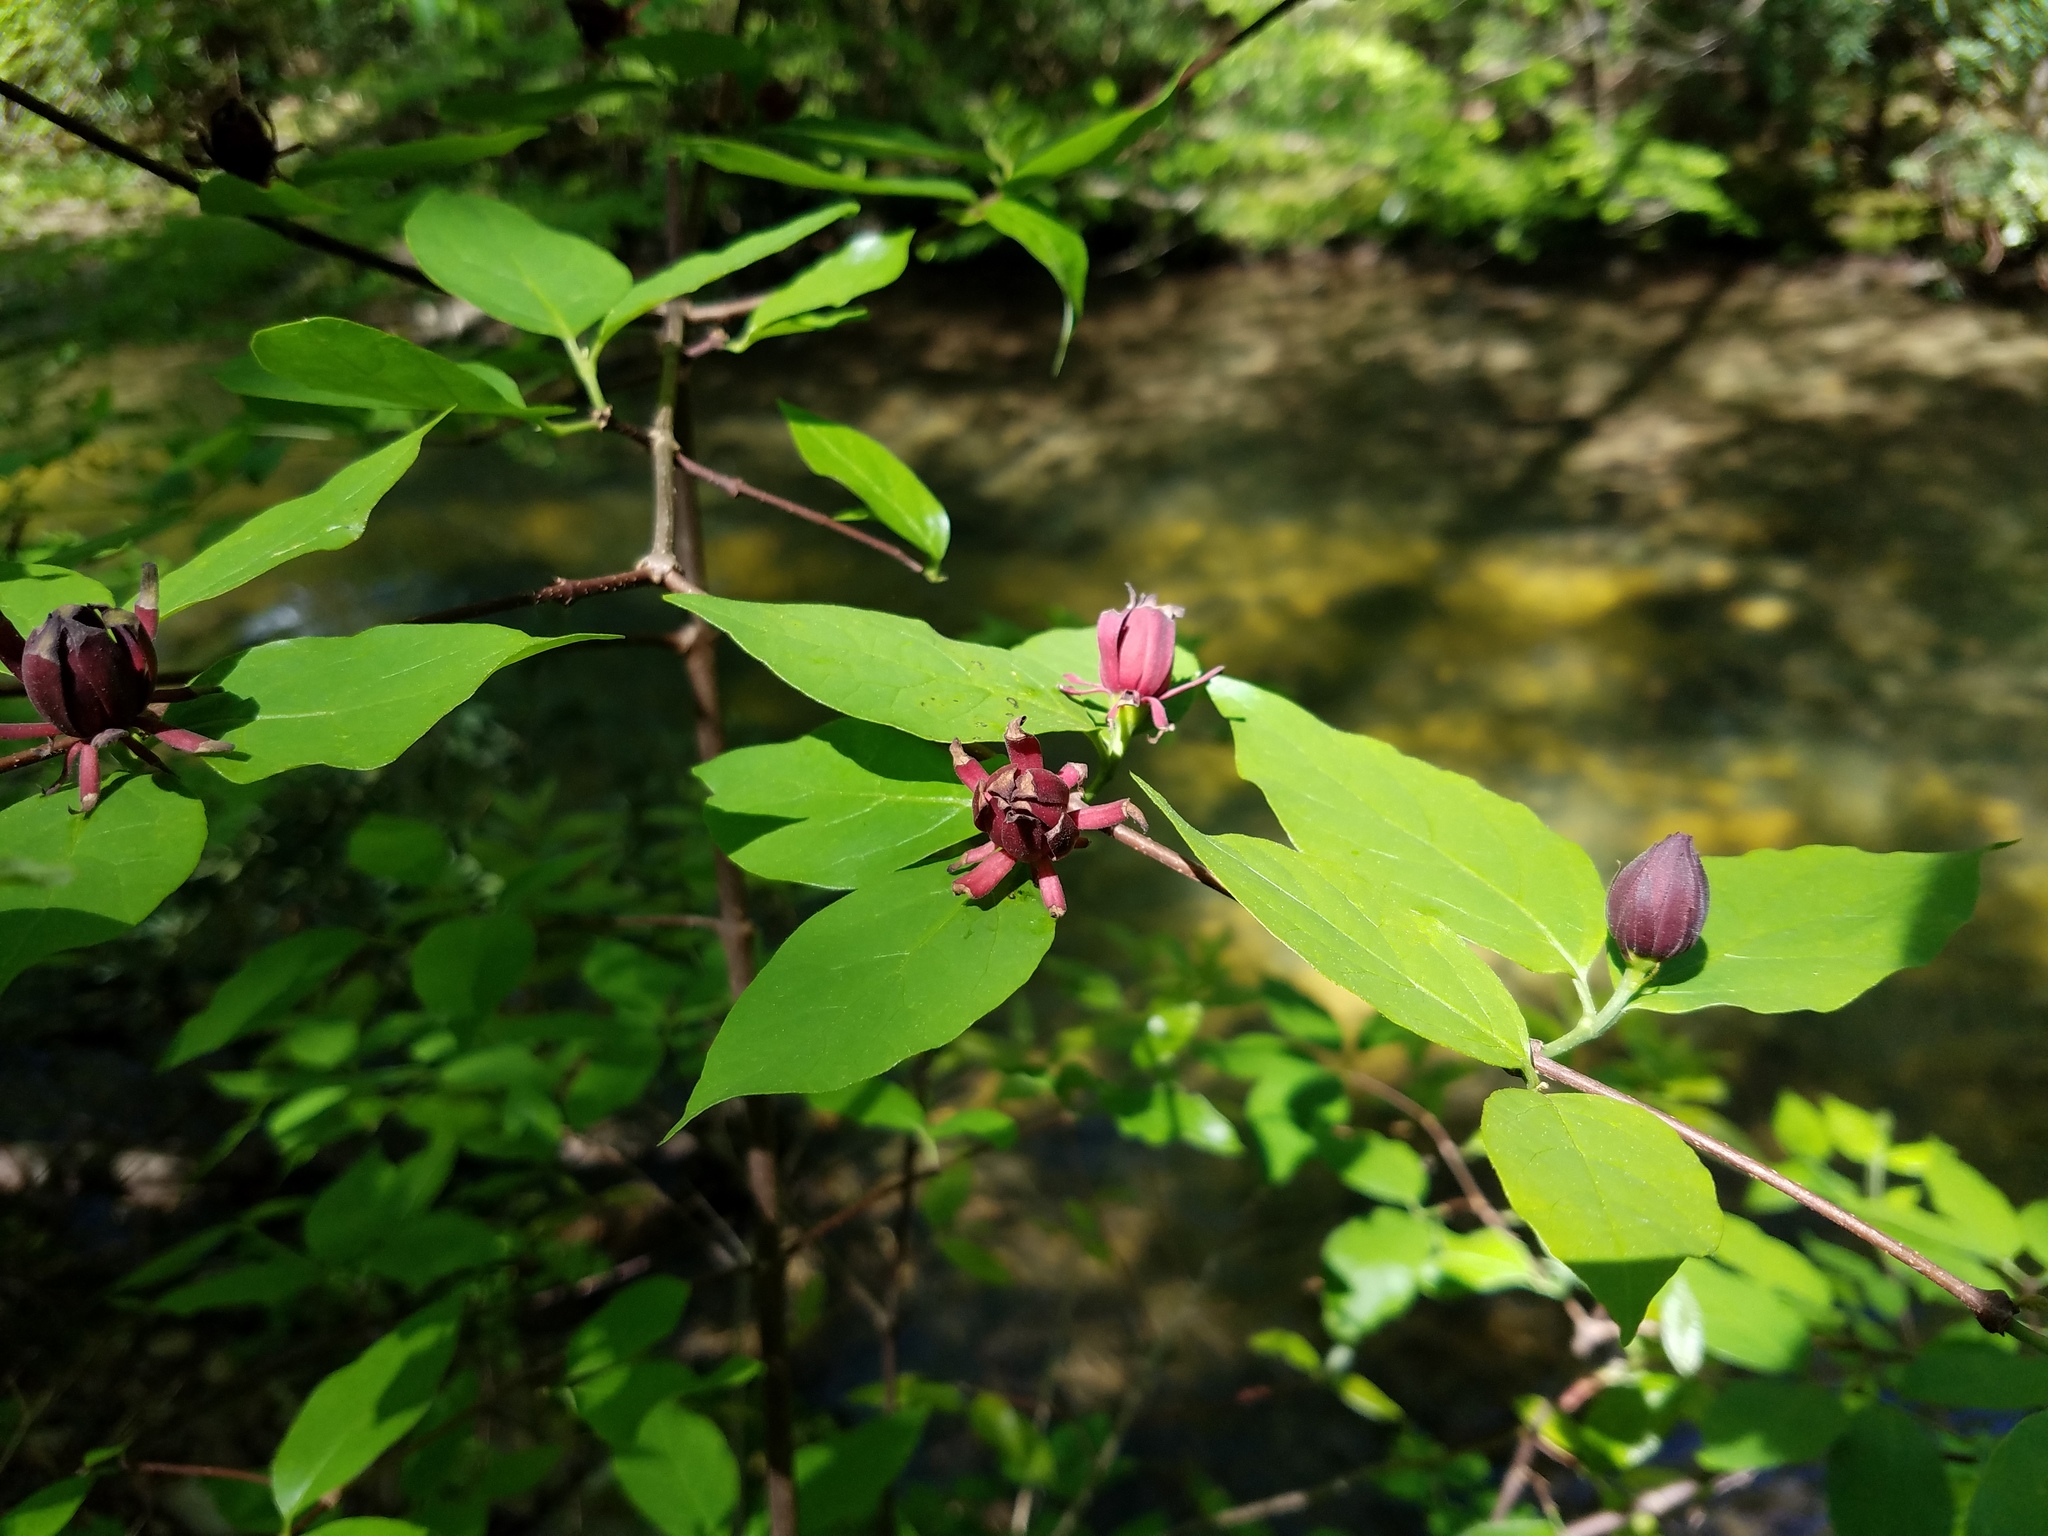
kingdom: Plantae
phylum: Tracheophyta
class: Magnoliopsida
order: Laurales
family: Calycanthaceae
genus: Calycanthus
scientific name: Calycanthus floridus
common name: Carolina-allspice
